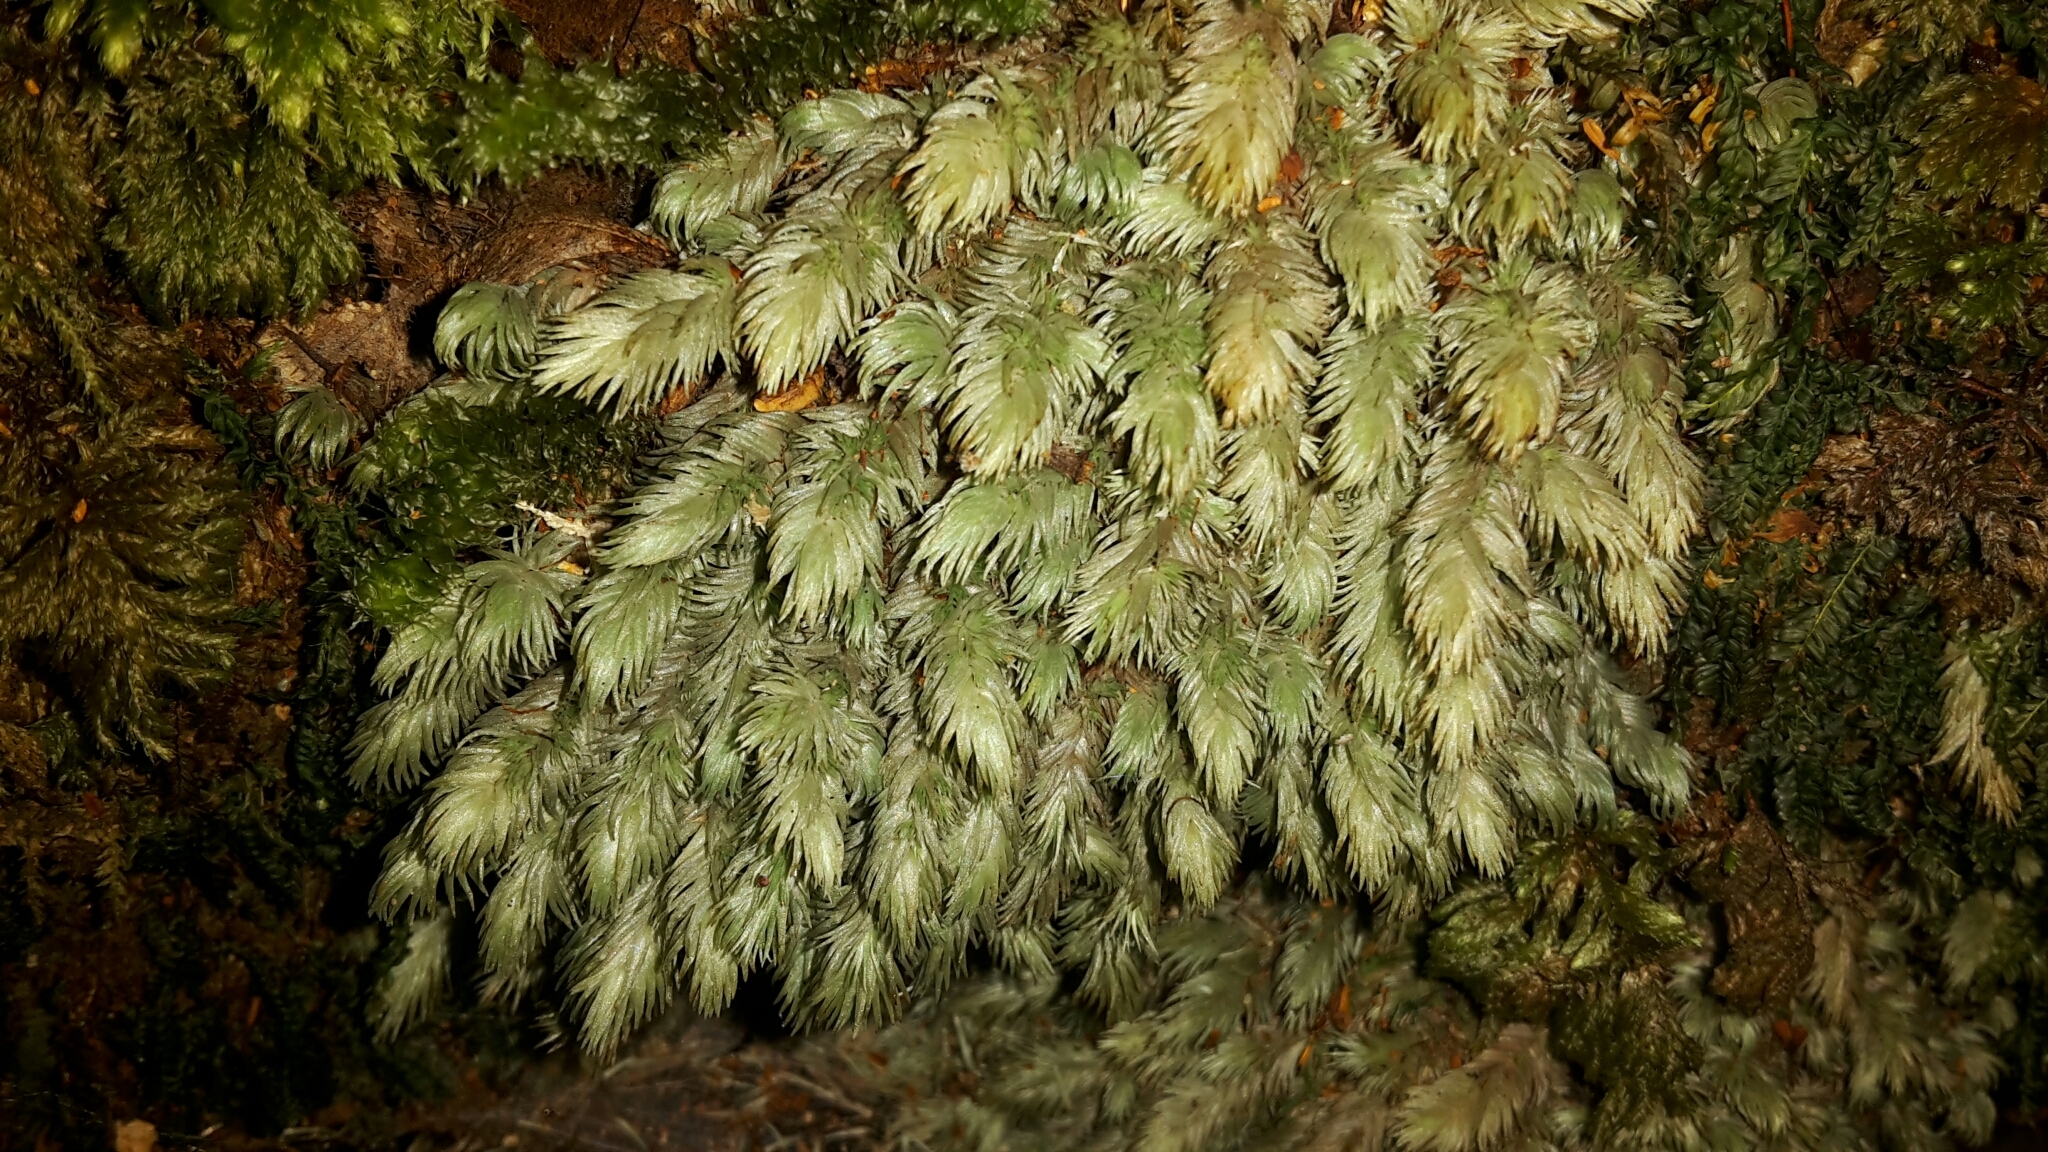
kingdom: Plantae
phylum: Bryophyta
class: Bryopsida
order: Dicranales
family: Leucobryaceae
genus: Leucobryum
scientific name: Leucobryum javense
